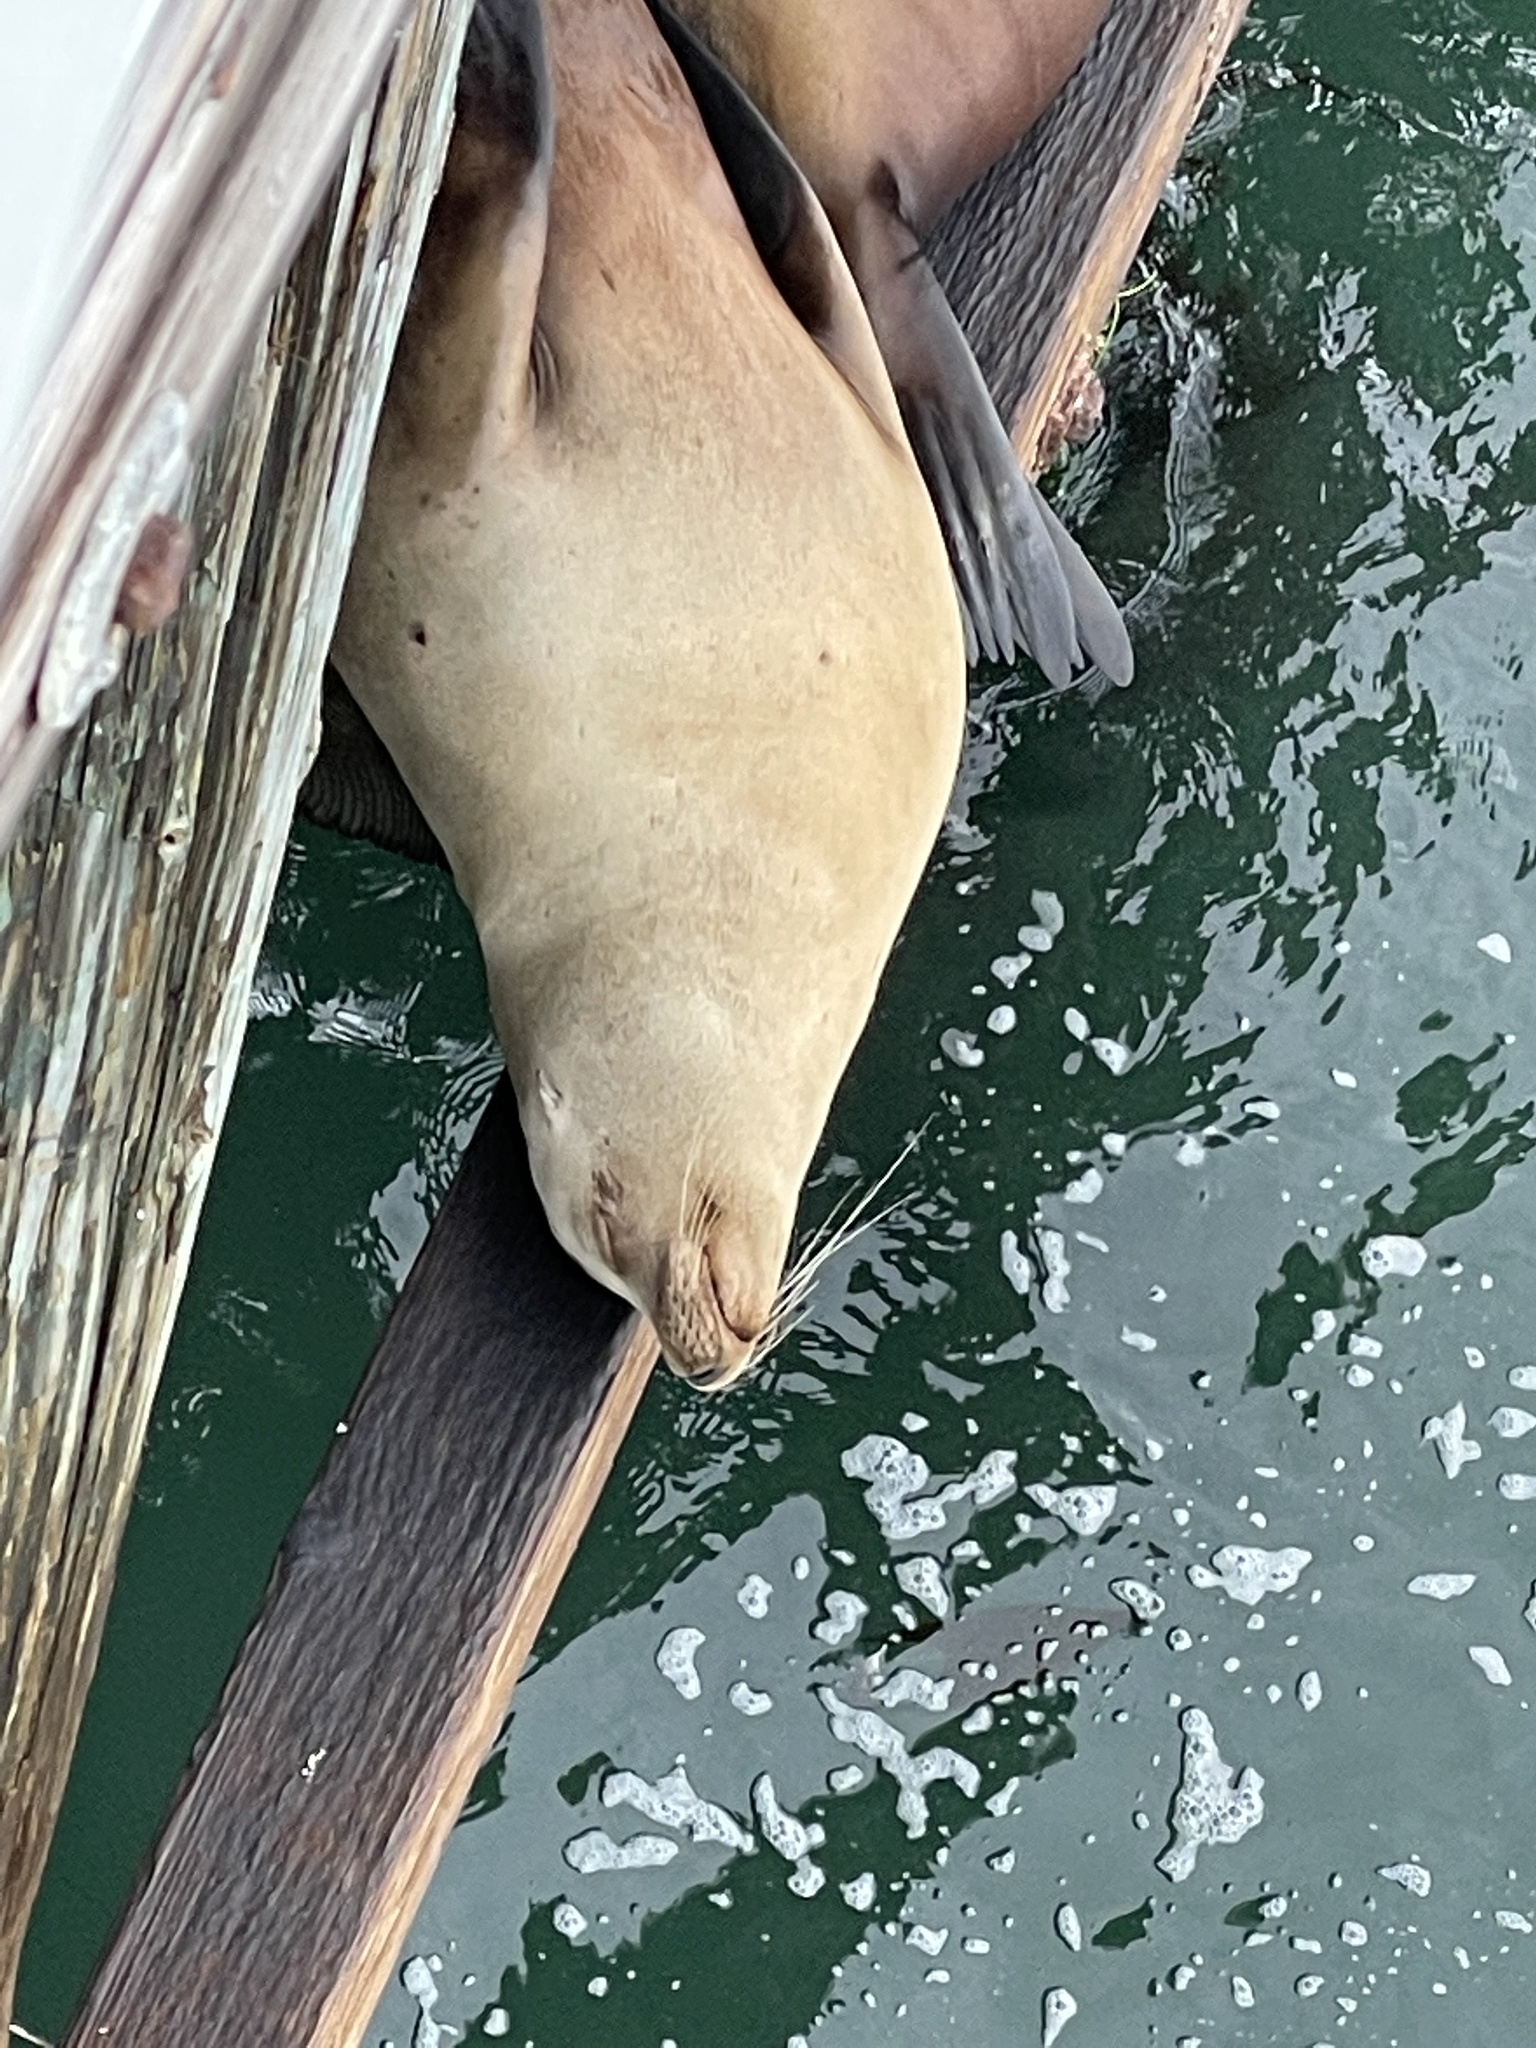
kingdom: Animalia
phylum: Chordata
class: Mammalia
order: Carnivora
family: Otariidae
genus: Zalophus
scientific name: Zalophus californianus
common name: California sea lion
